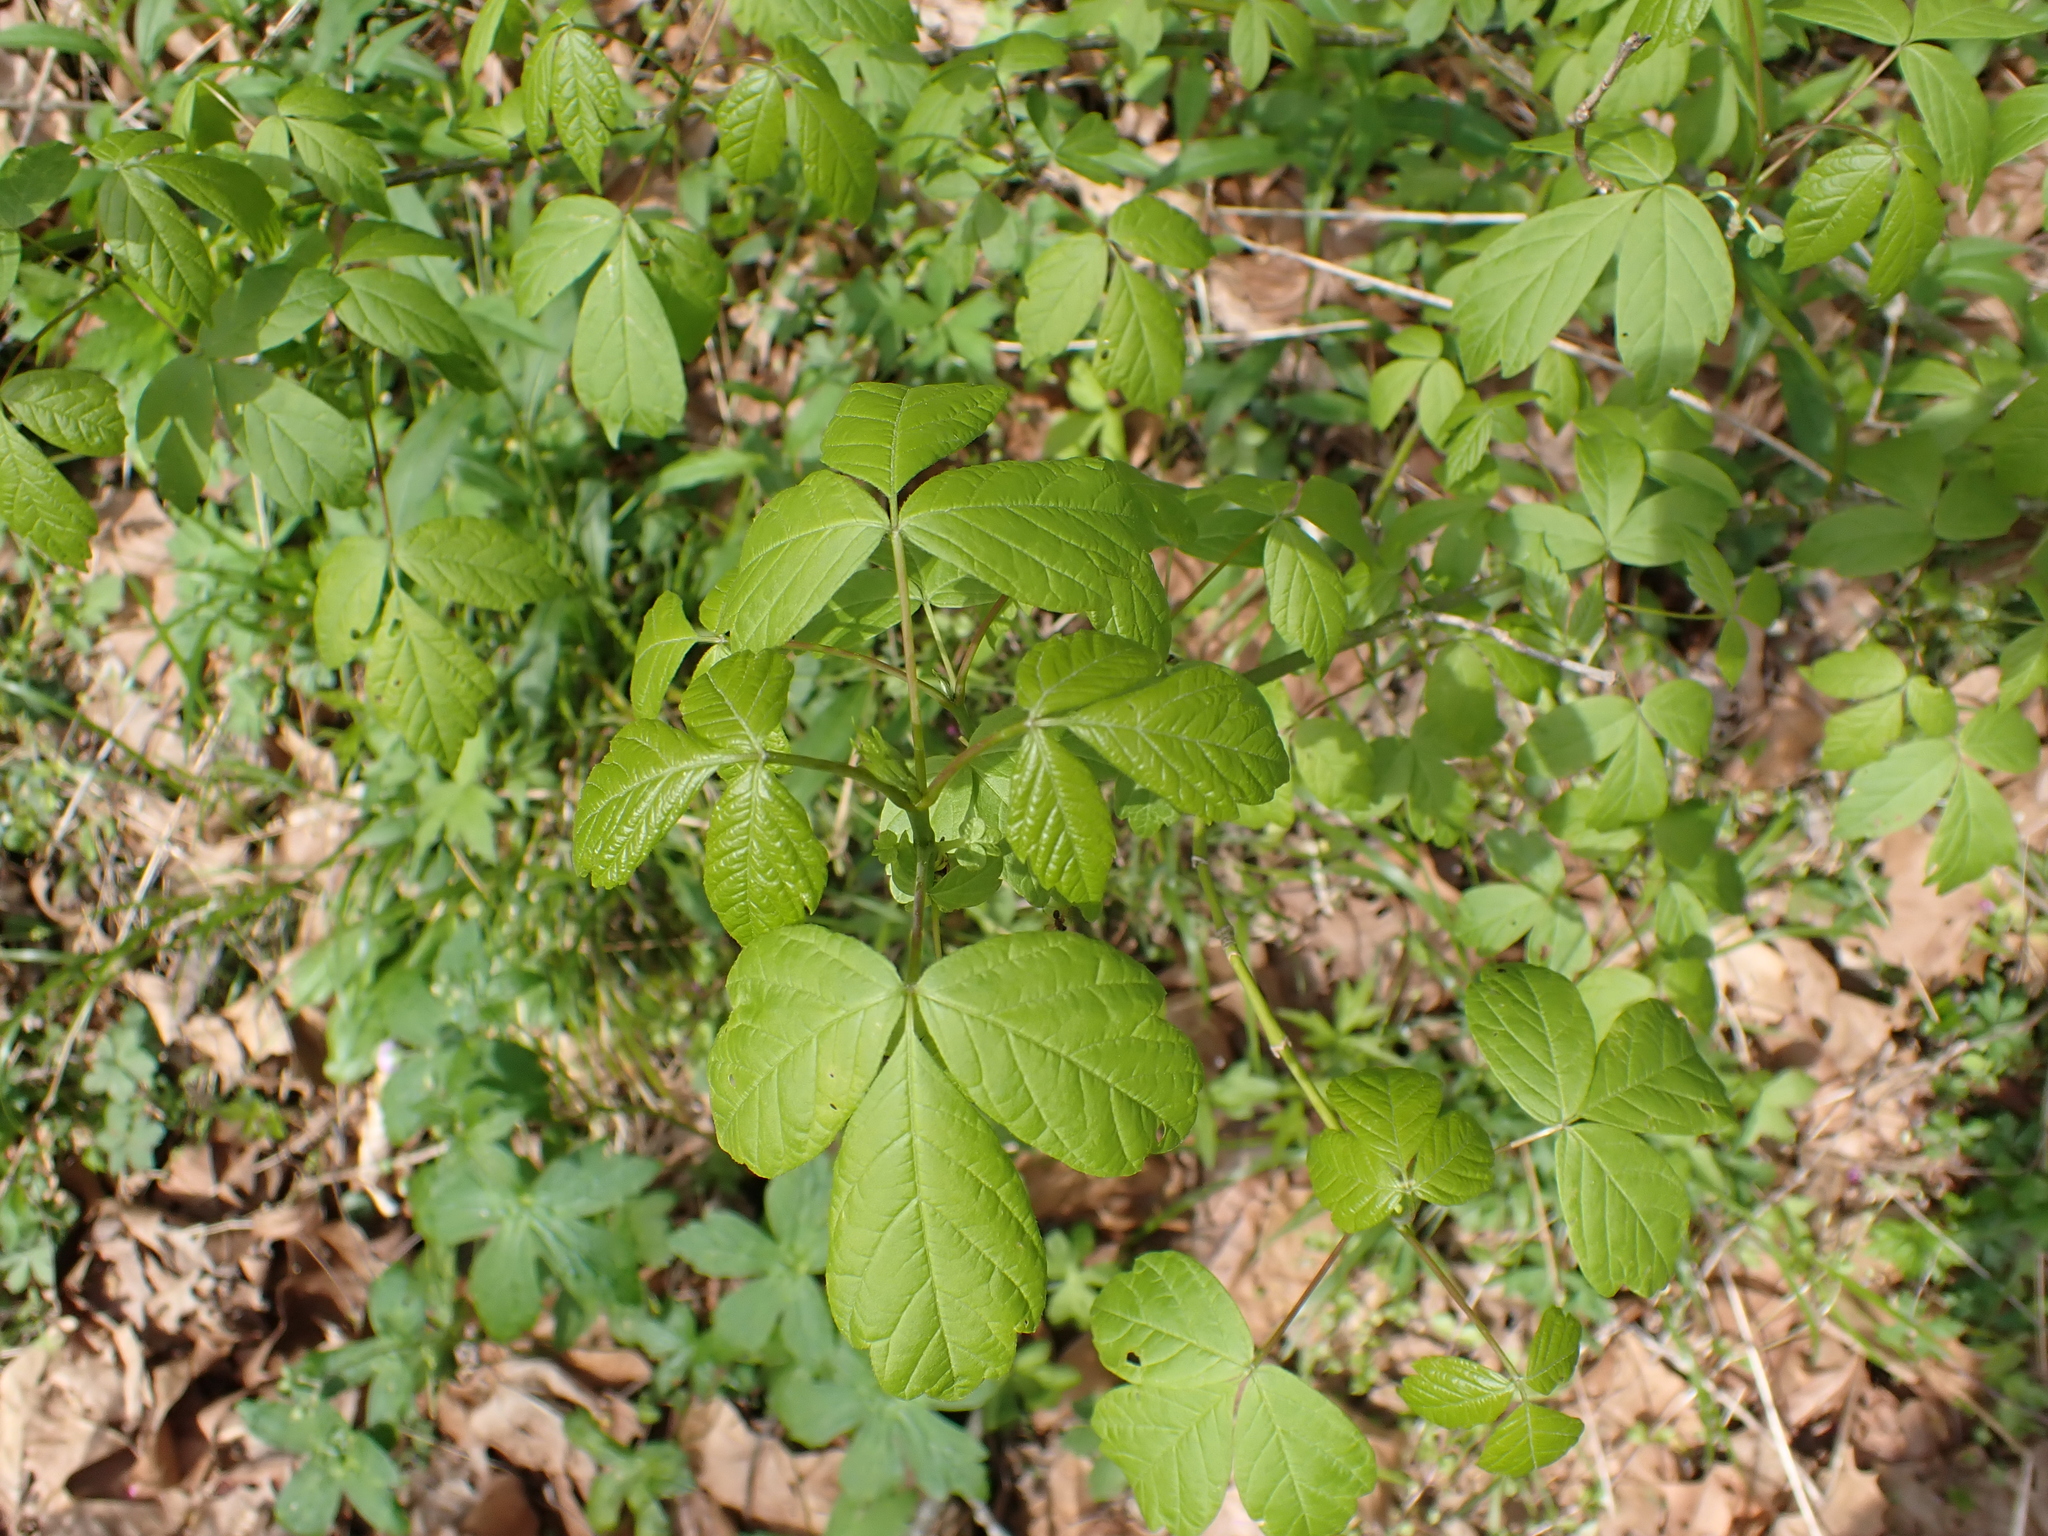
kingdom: Plantae
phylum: Tracheophyta
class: Magnoliopsida
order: Sapindales
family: Sapindaceae
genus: Acer
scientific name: Acer negundo
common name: Ashleaf maple
